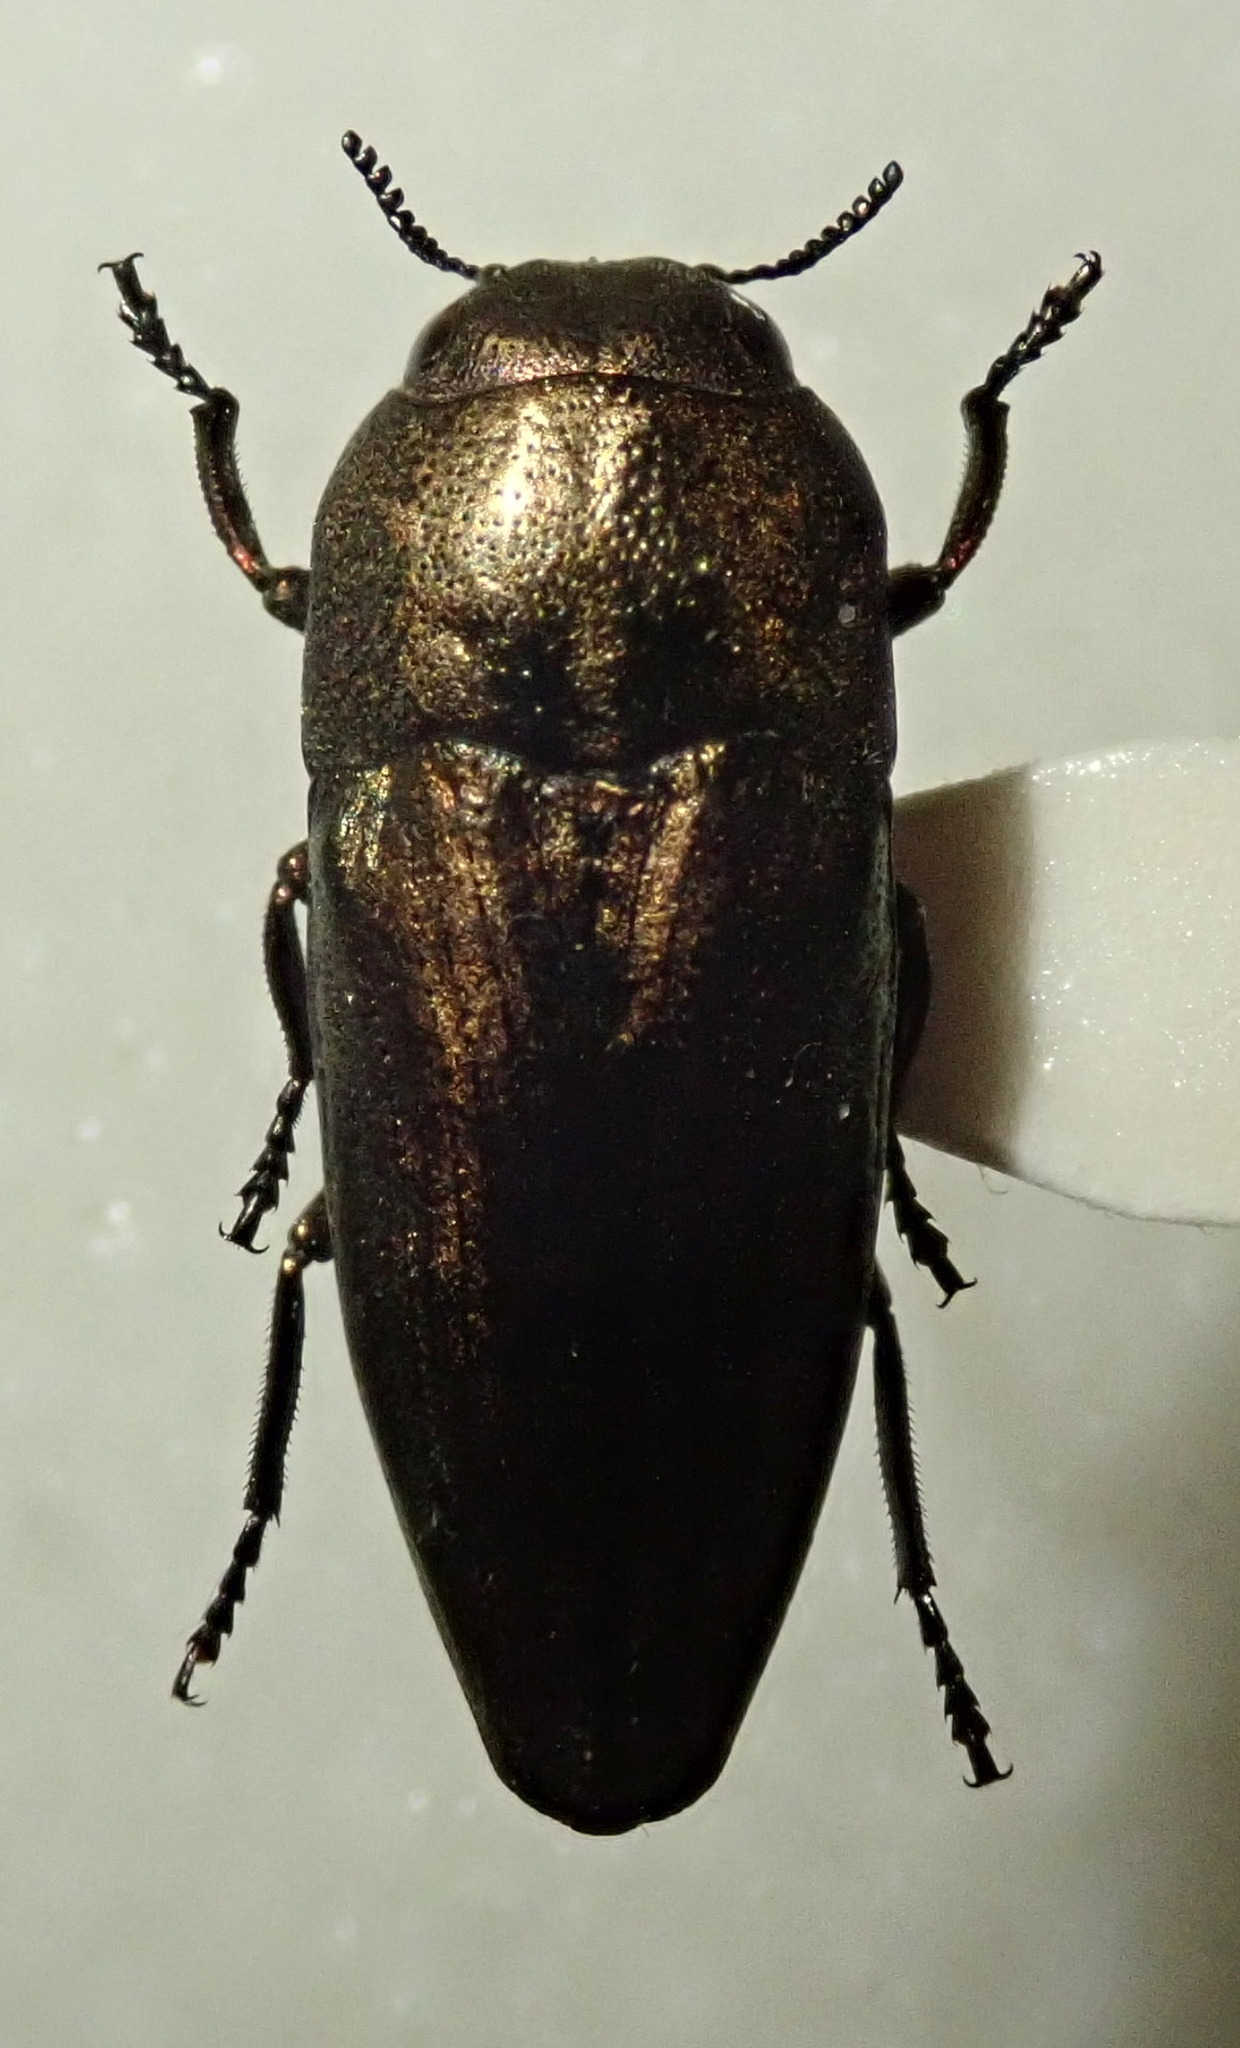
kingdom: Animalia
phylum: Arthropoda
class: Insecta
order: Coleoptera
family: Buprestidae
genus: Sphenoptera
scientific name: Sphenoptera barbarica
